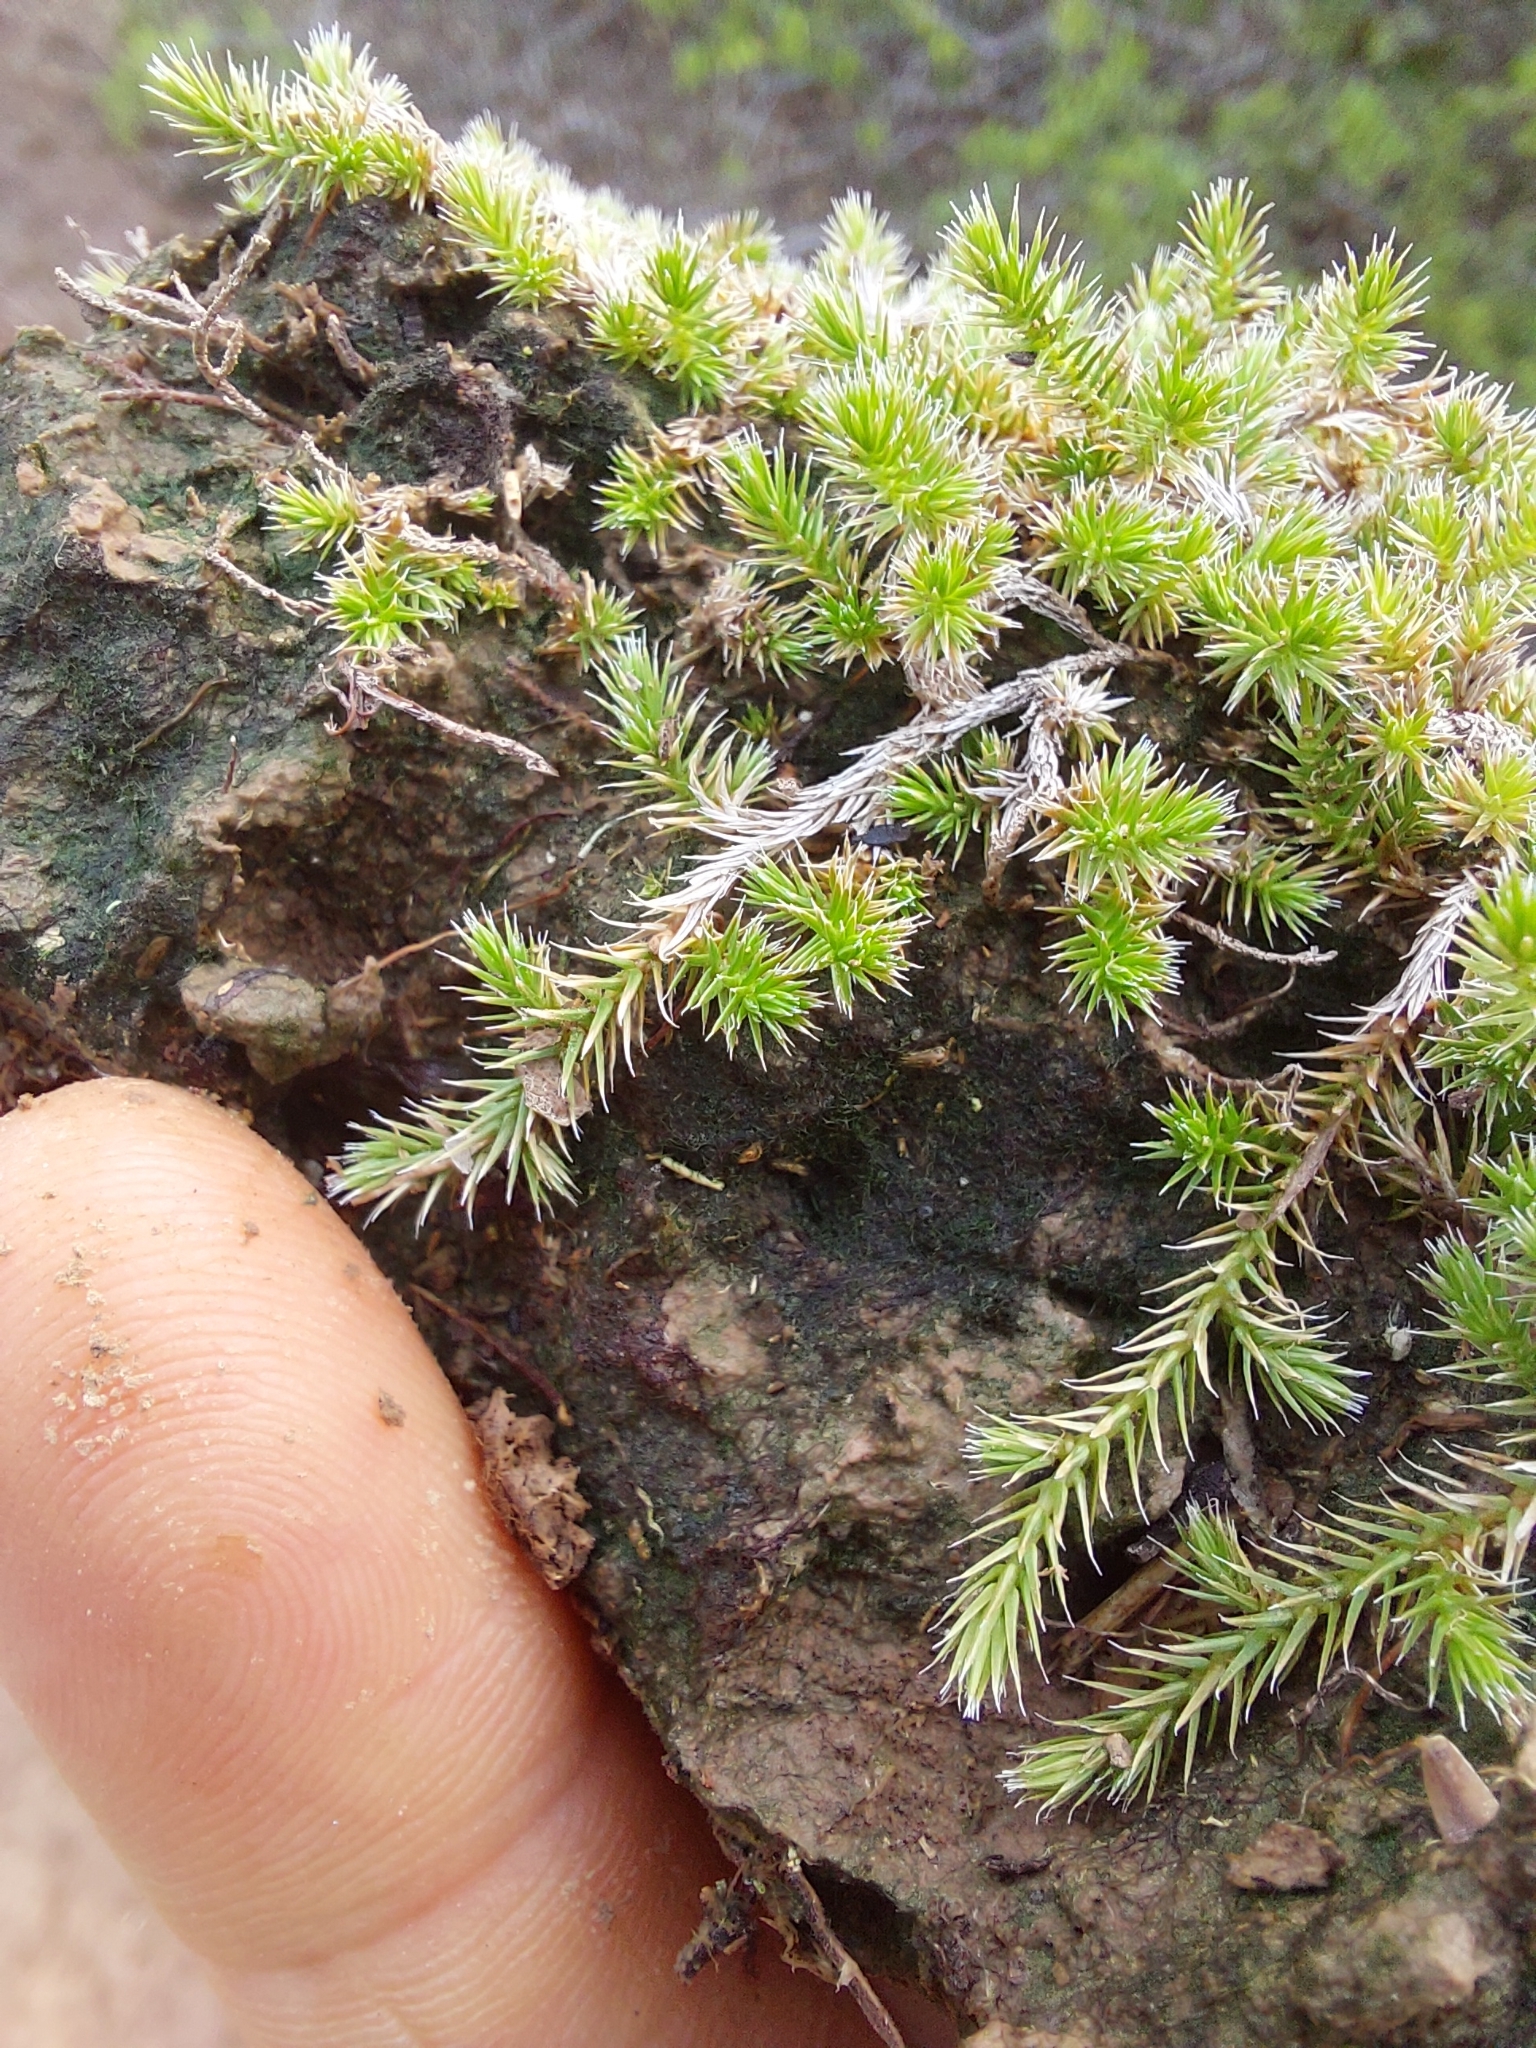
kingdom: Plantae
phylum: Tracheophyta
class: Lycopodiopsida
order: Selaginellales
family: Selaginellaceae
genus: Selaginella
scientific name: Selaginella sellowii
